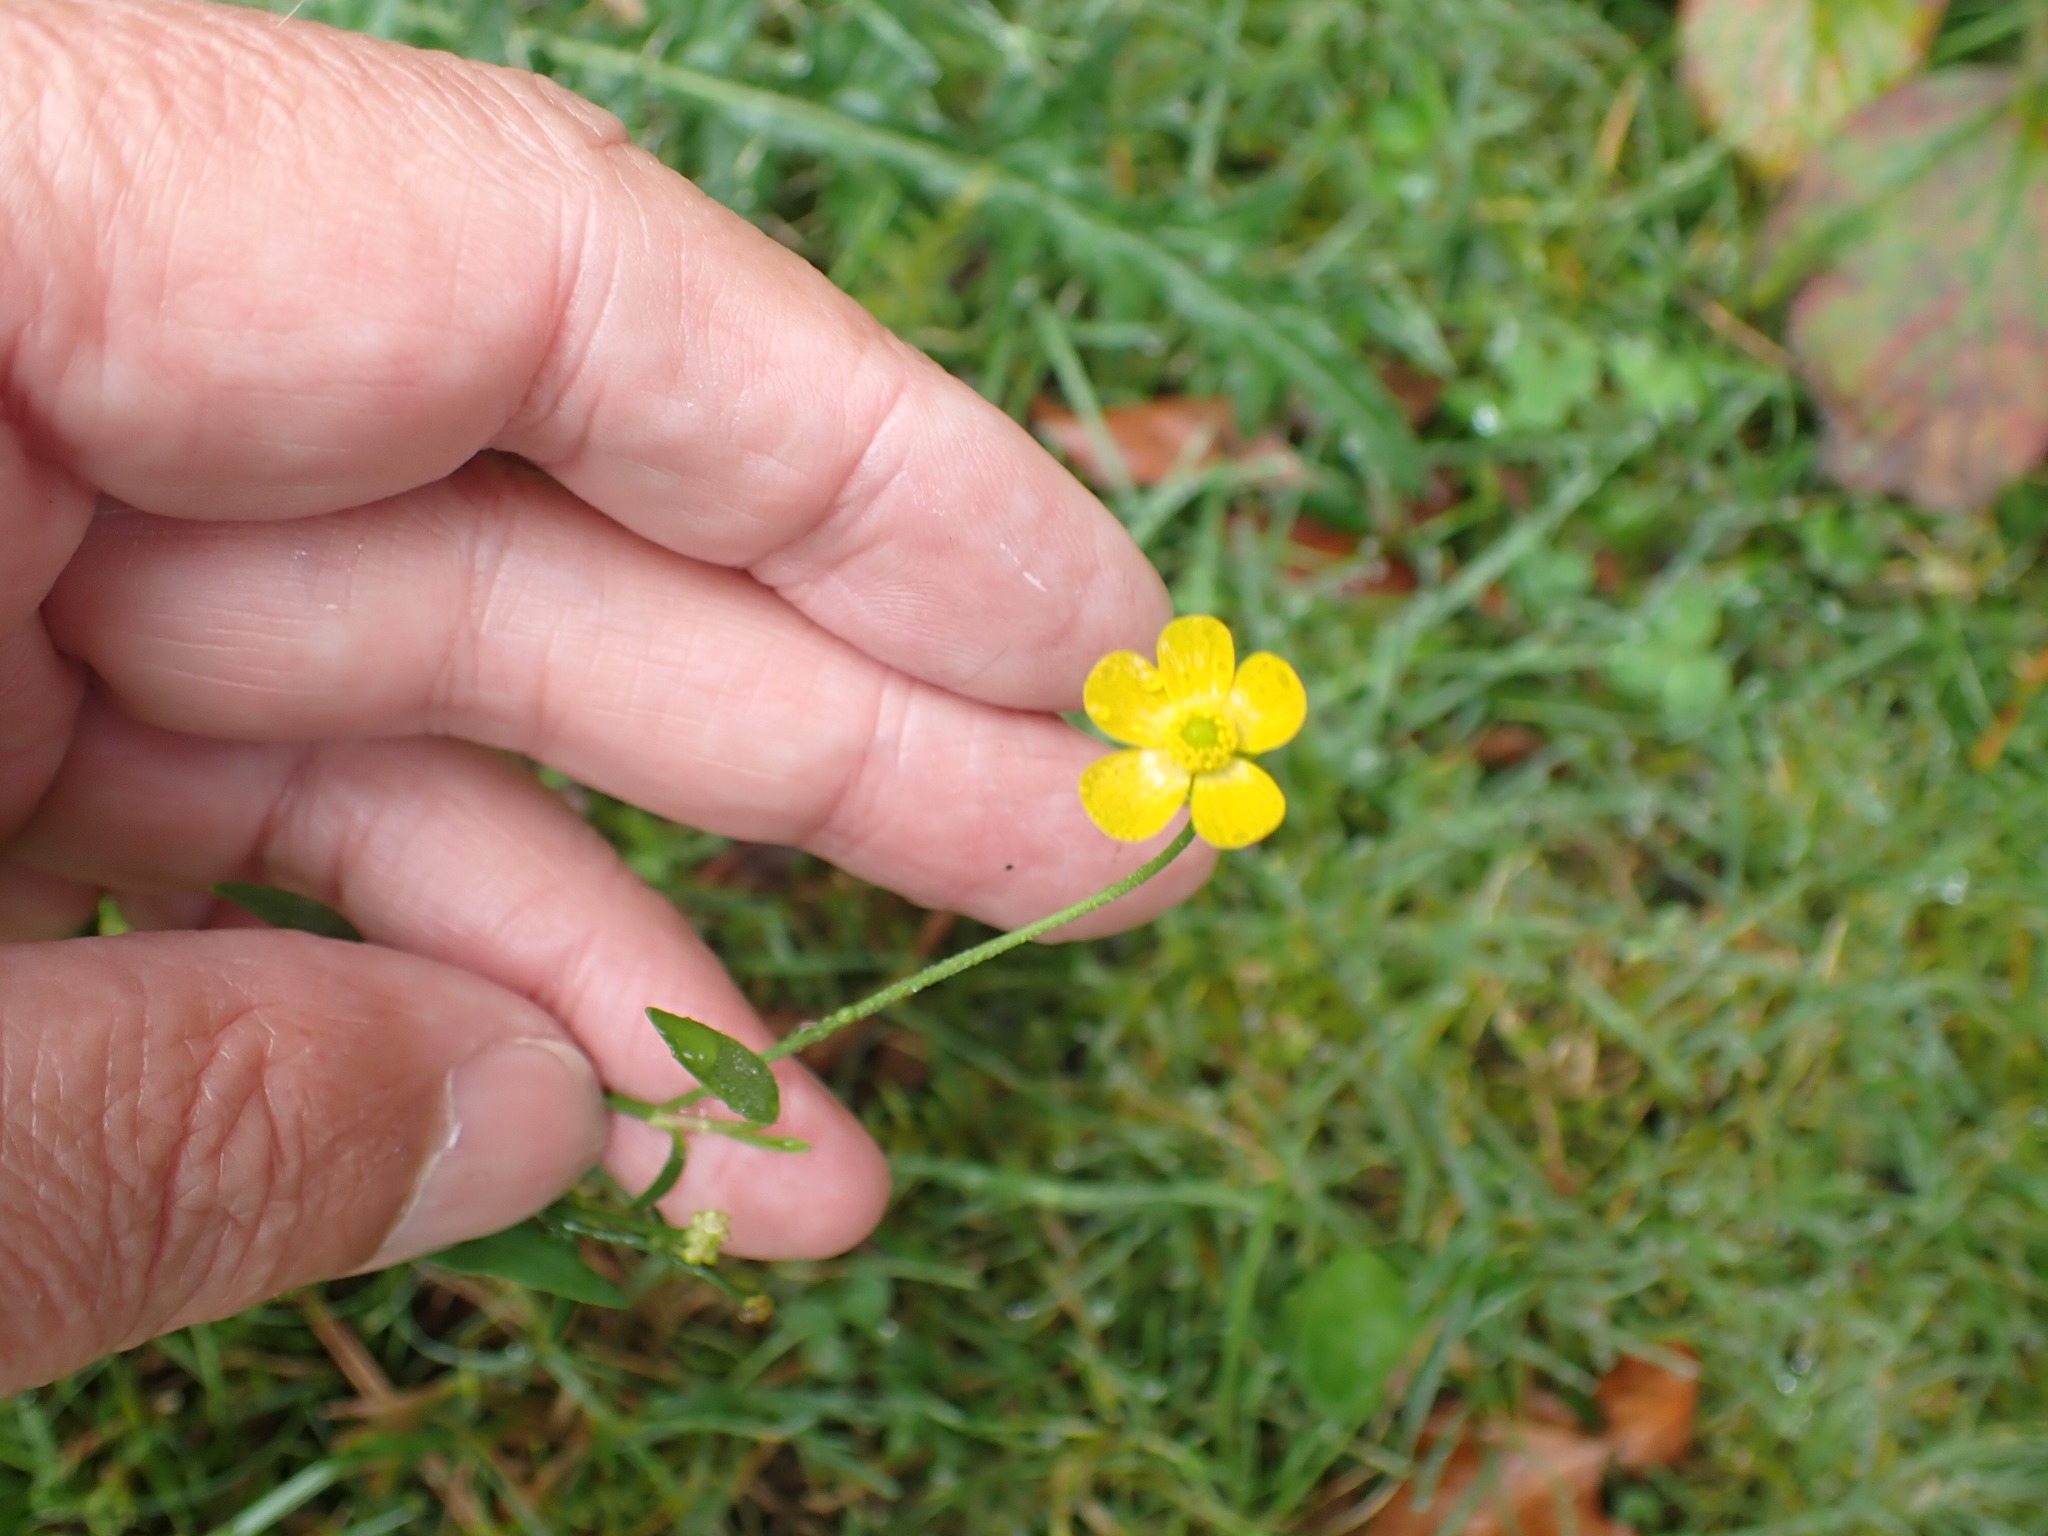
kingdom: Plantae
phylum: Tracheophyta
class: Magnoliopsida
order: Ranunculales
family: Ranunculaceae
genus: Ranunculus
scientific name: Ranunculus flammula
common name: Lesser spearwort
